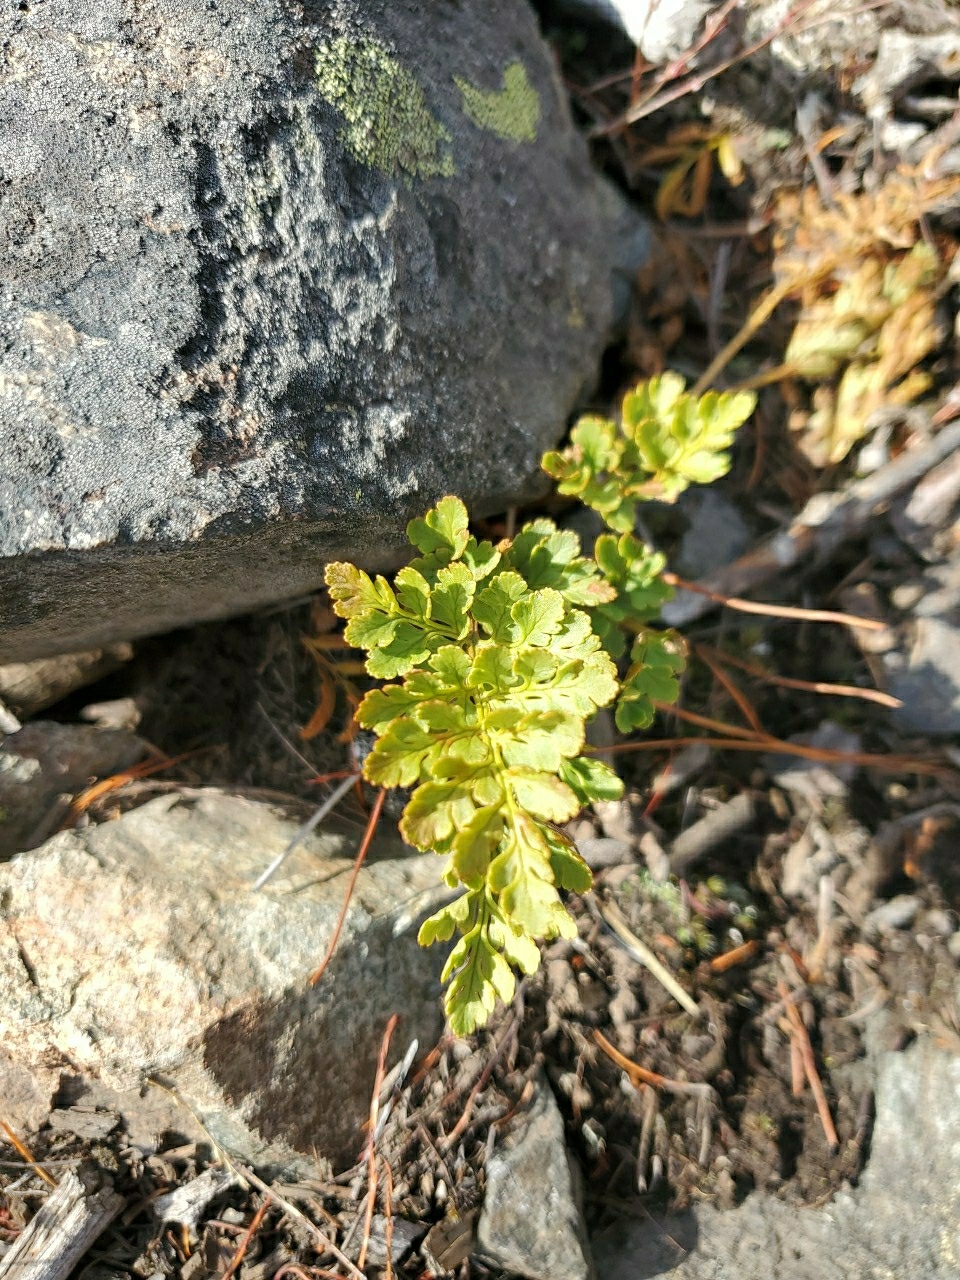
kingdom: Plantae
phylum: Tracheophyta
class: Polypodiopsida
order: Polypodiales
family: Pteridaceae
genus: Cryptogramma
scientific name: Cryptogramma acrostichoides
